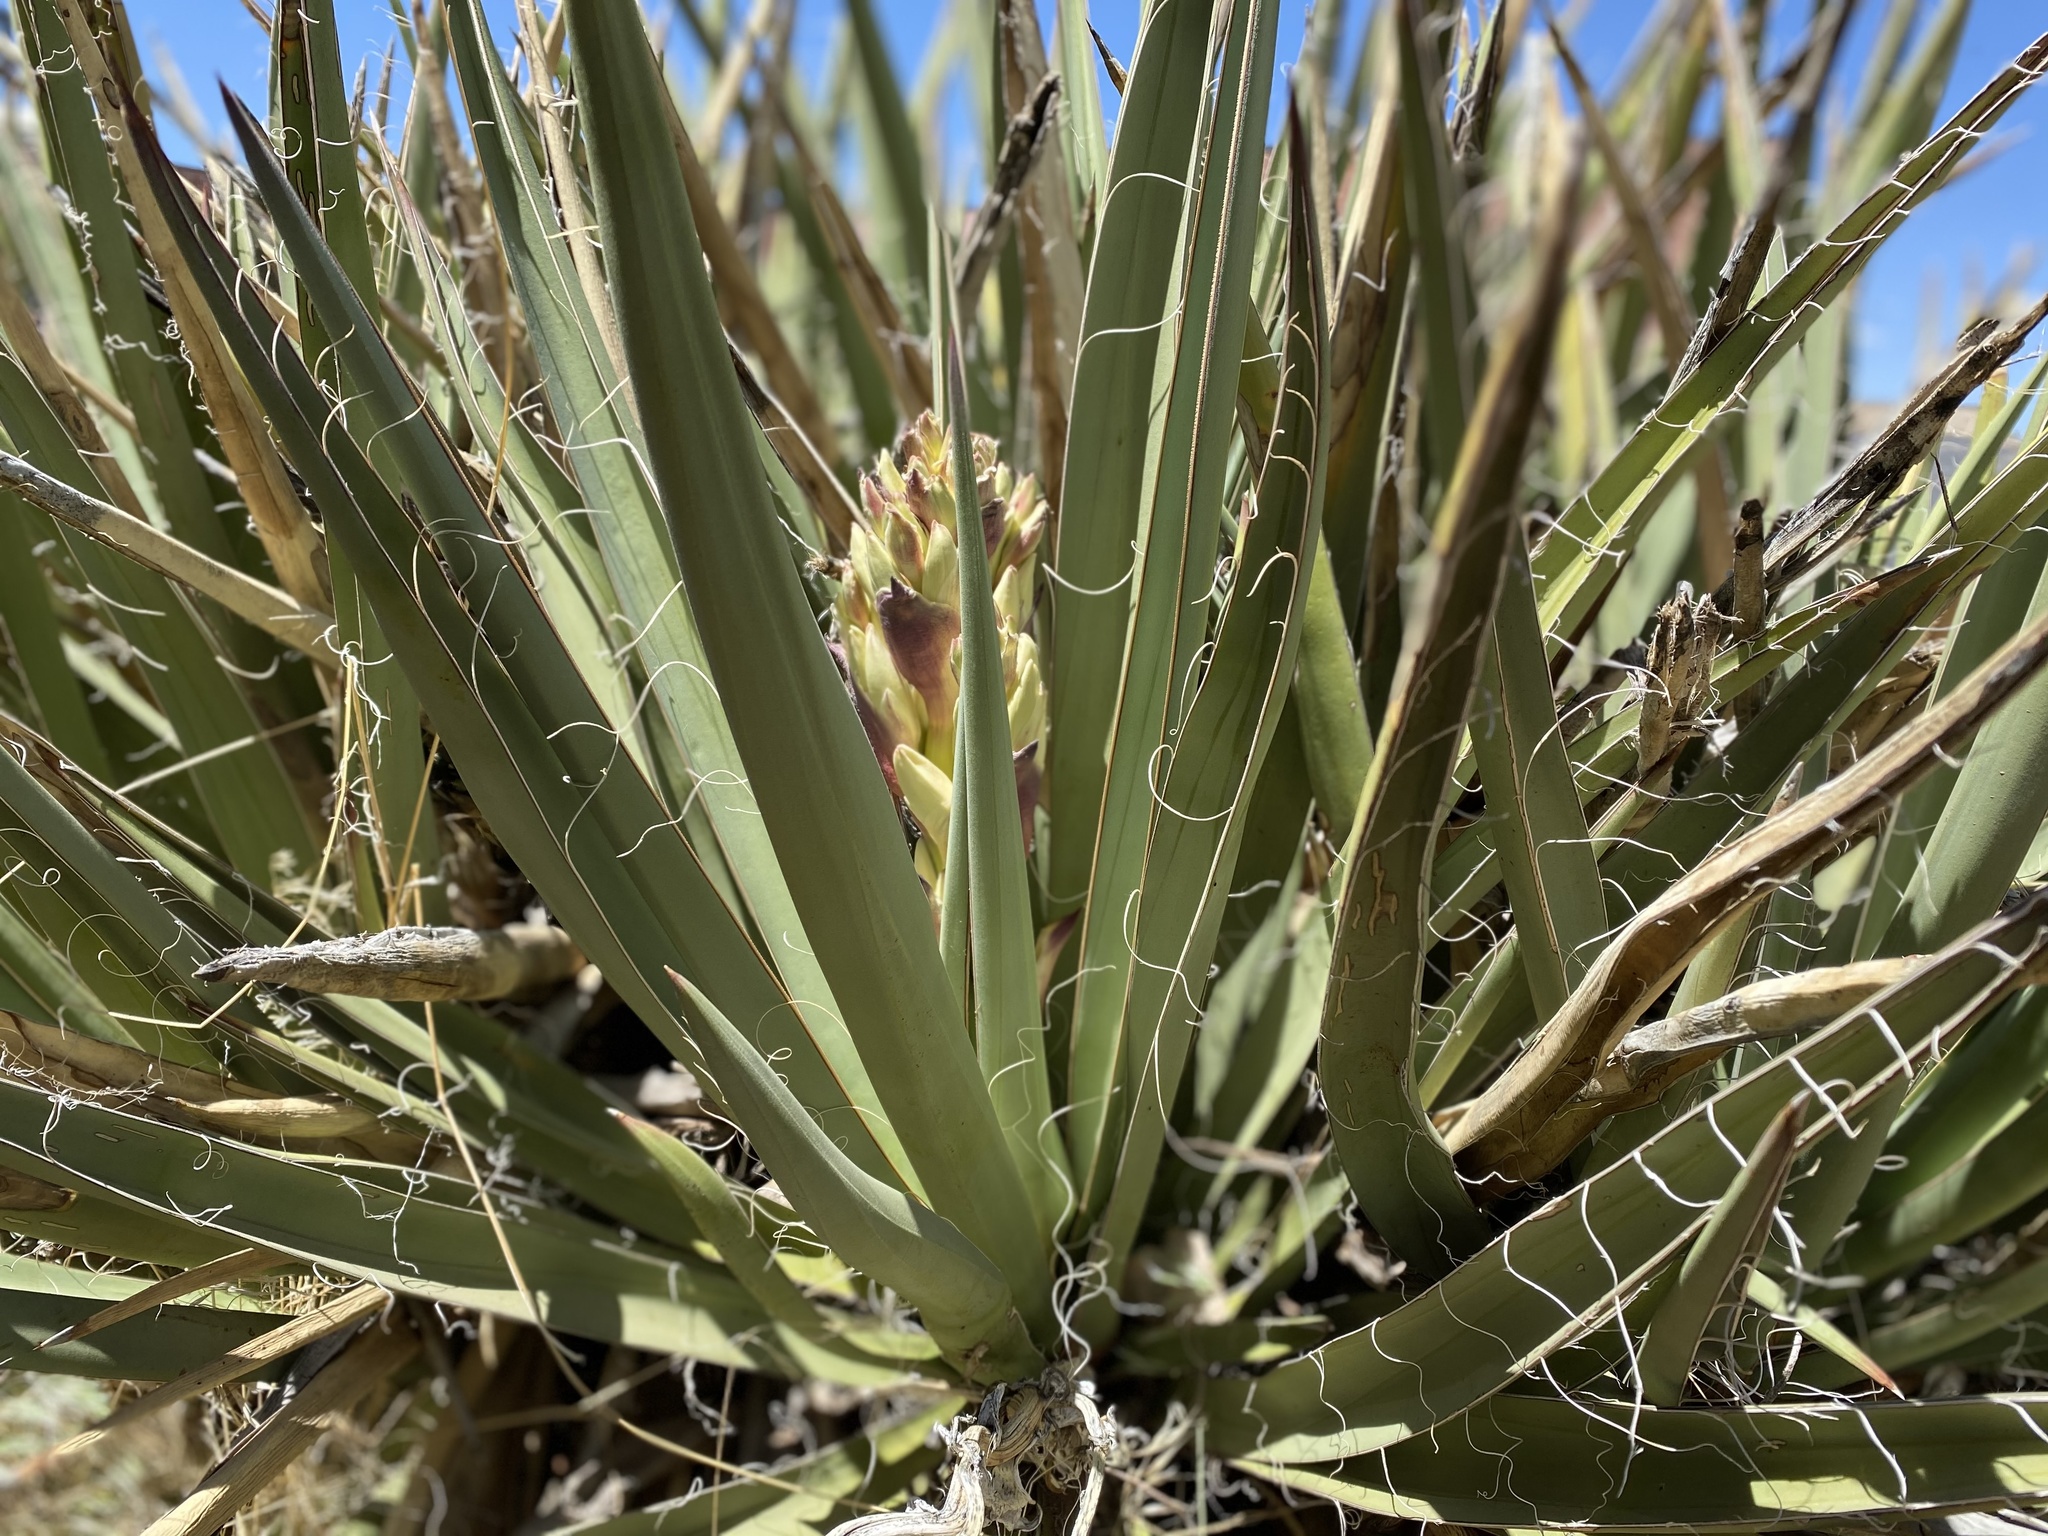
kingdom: Plantae
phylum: Tracheophyta
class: Liliopsida
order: Asparagales
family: Asparagaceae
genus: Yucca
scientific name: Yucca baccata
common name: Banana yucca
